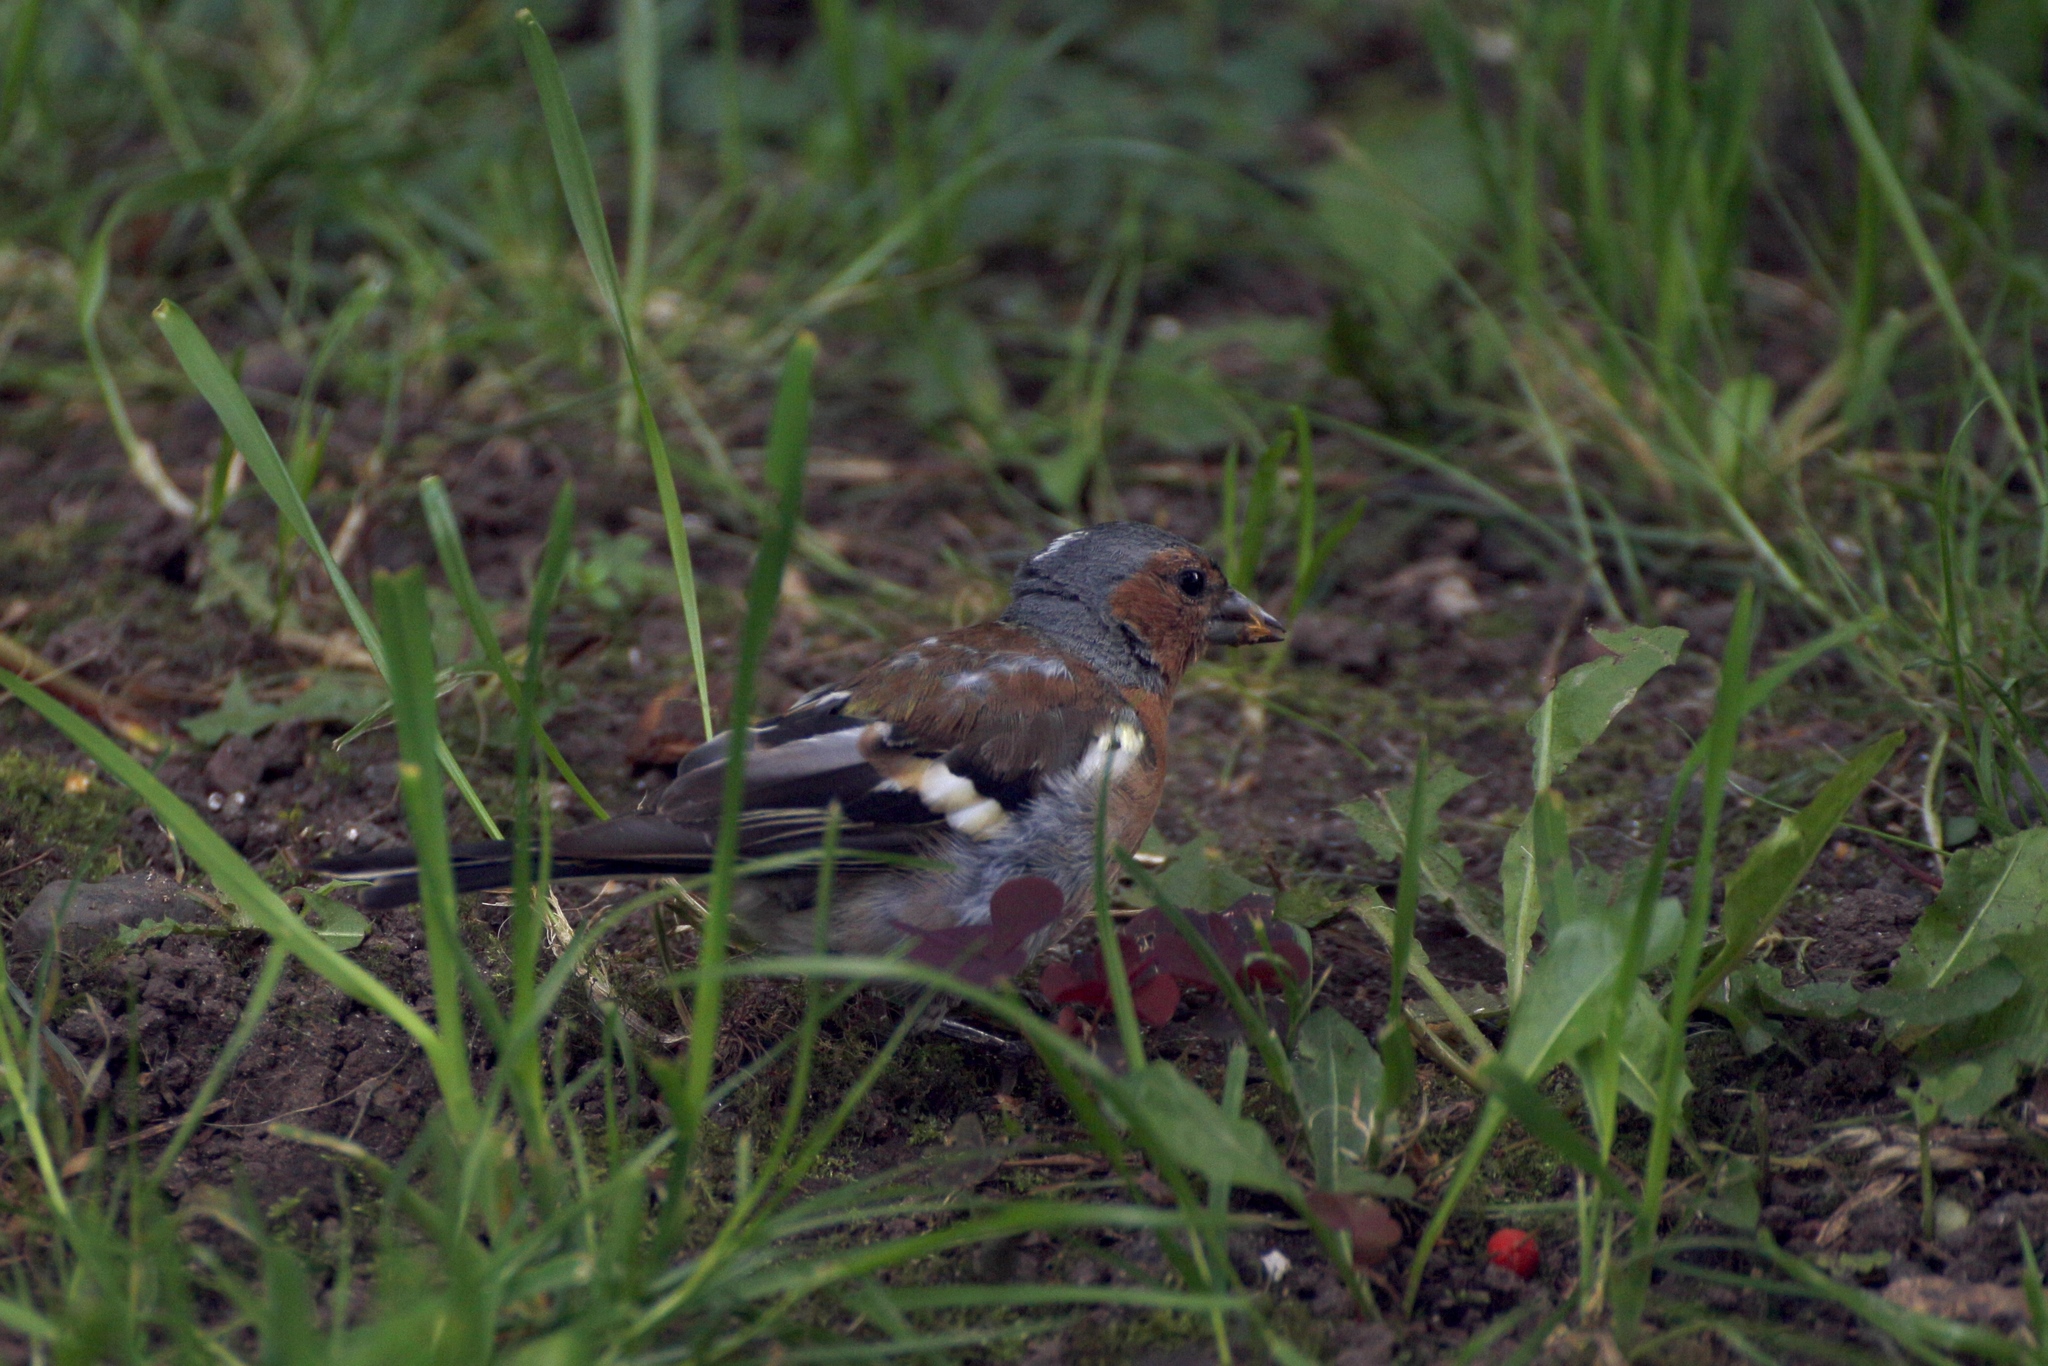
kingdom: Animalia
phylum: Chordata
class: Aves
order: Passeriformes
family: Fringillidae
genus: Fringilla
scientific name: Fringilla coelebs
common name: Common chaffinch
